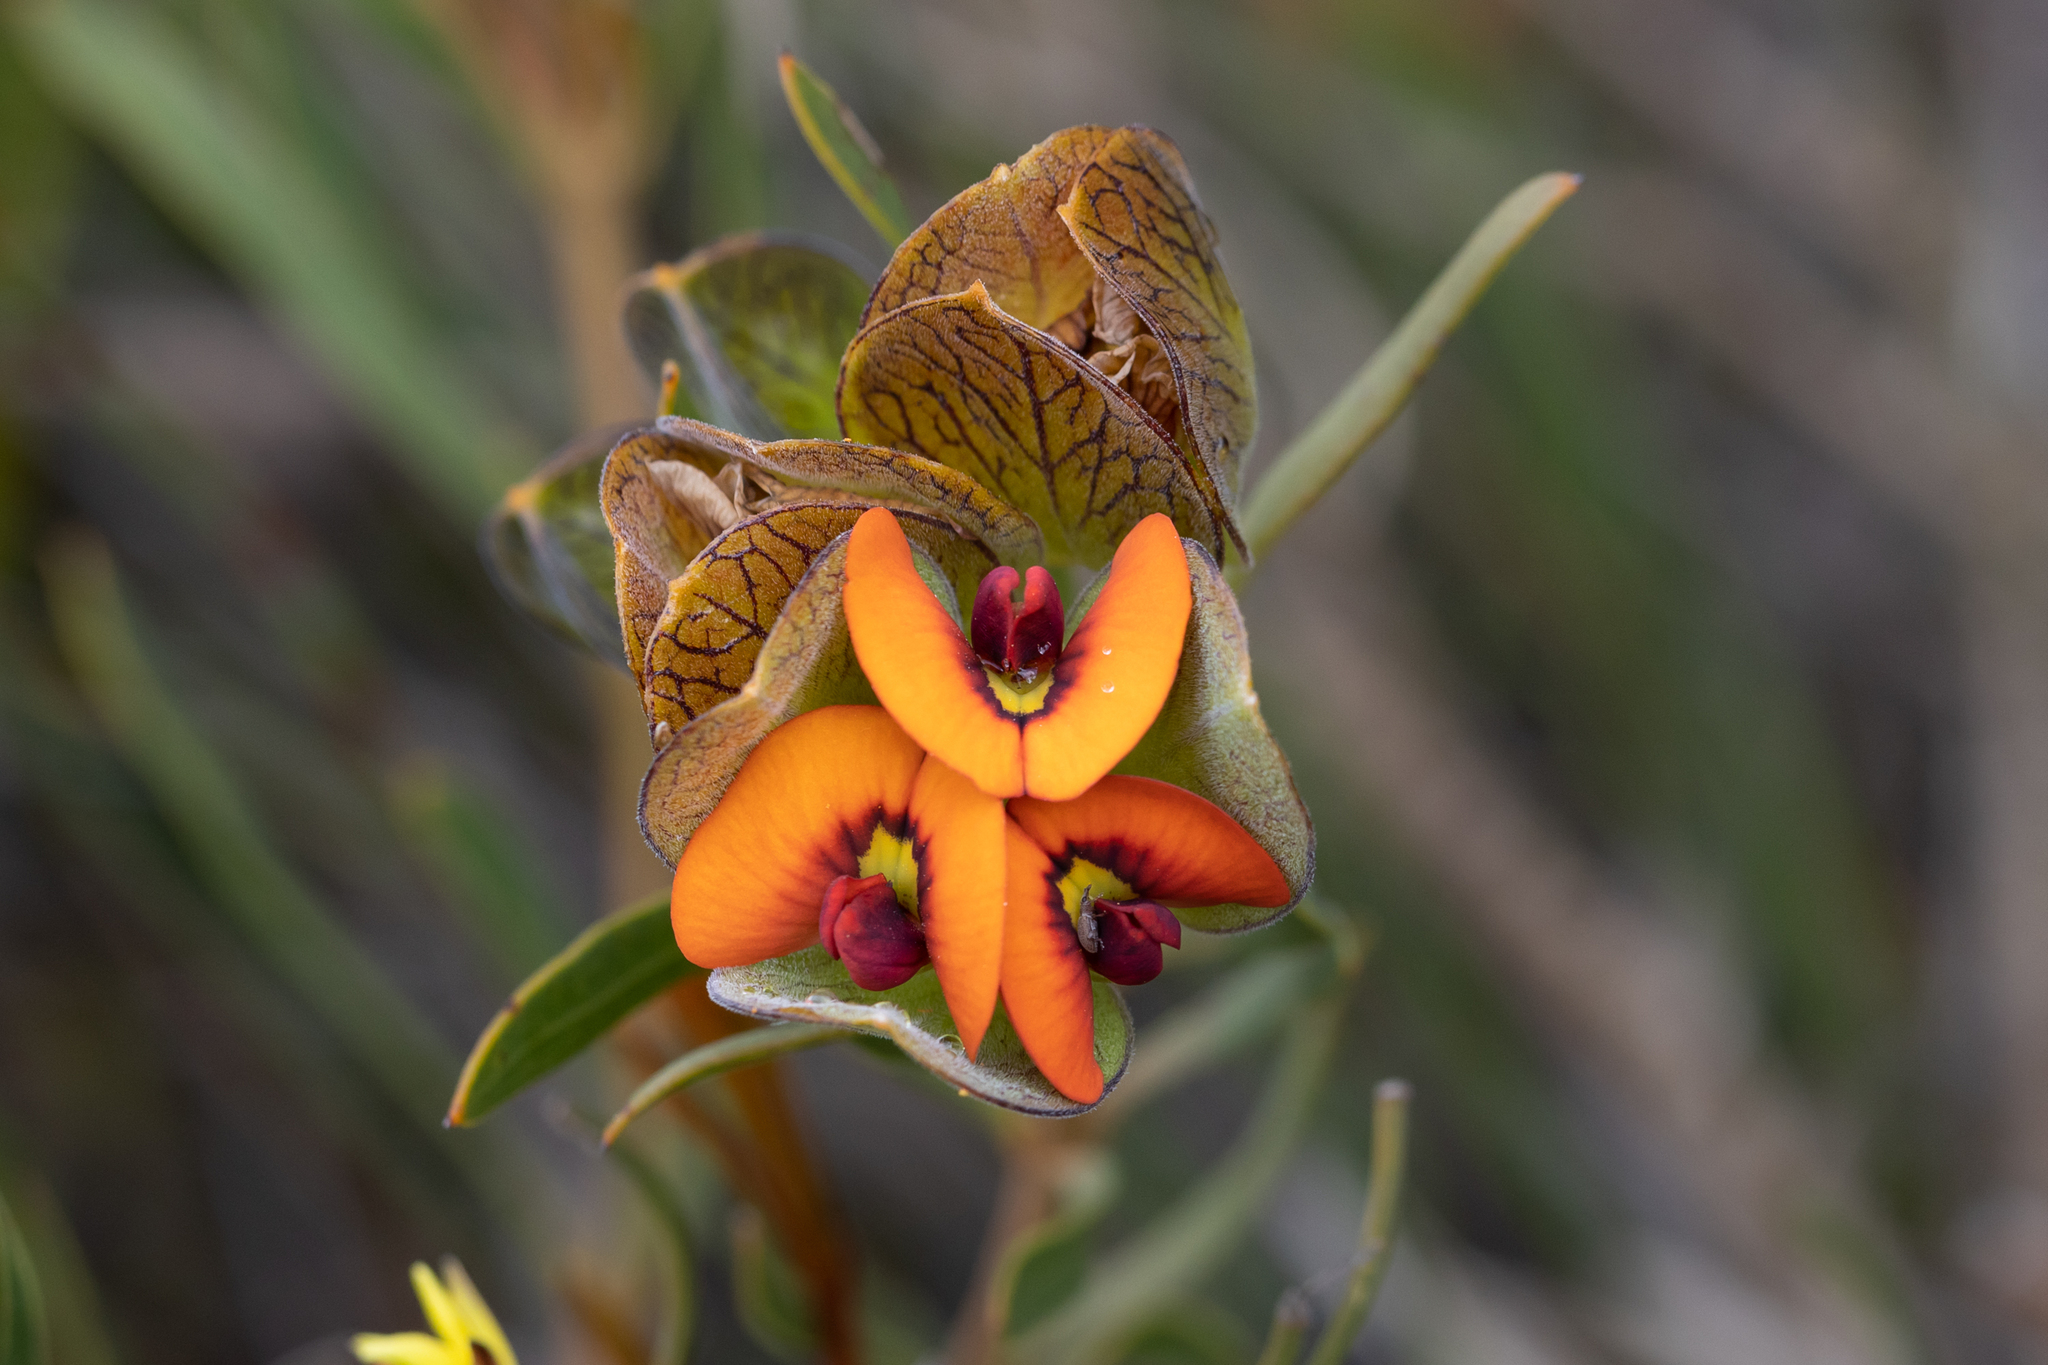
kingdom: Plantae
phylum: Tracheophyta
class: Magnoliopsida
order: Fabales
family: Fabaceae
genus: Daviesia
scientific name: Daviesia alternifolia
